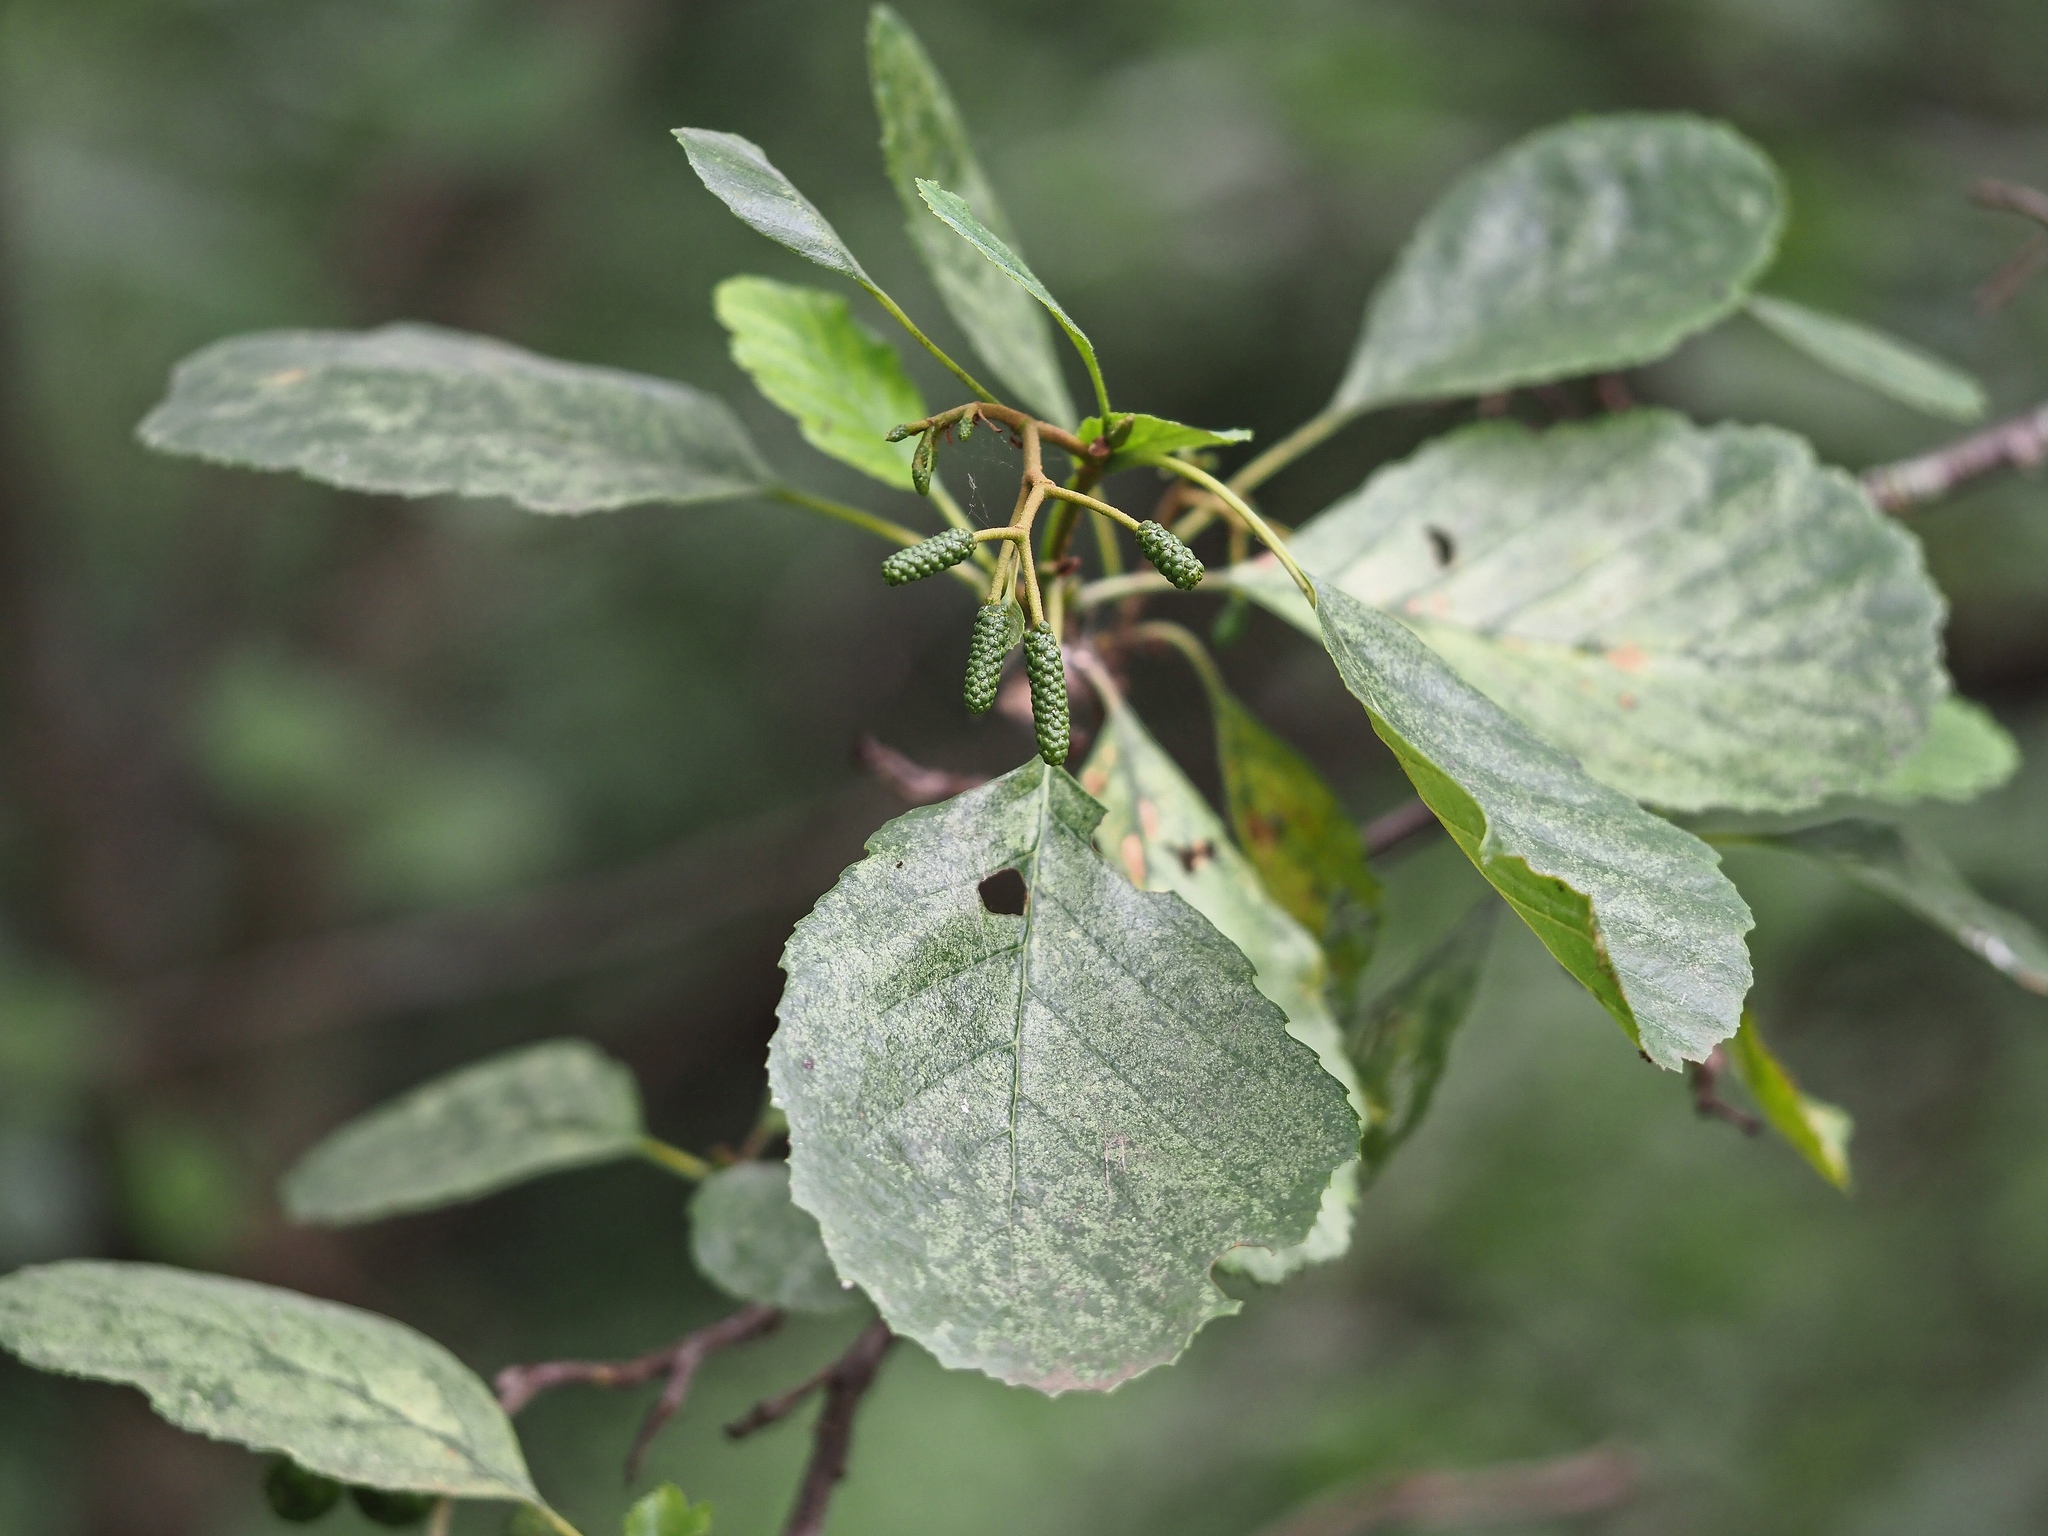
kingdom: Plantae
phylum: Tracheophyta
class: Magnoliopsida
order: Fagales
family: Betulaceae
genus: Alnus
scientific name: Alnus glutinosa
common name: Black alder
